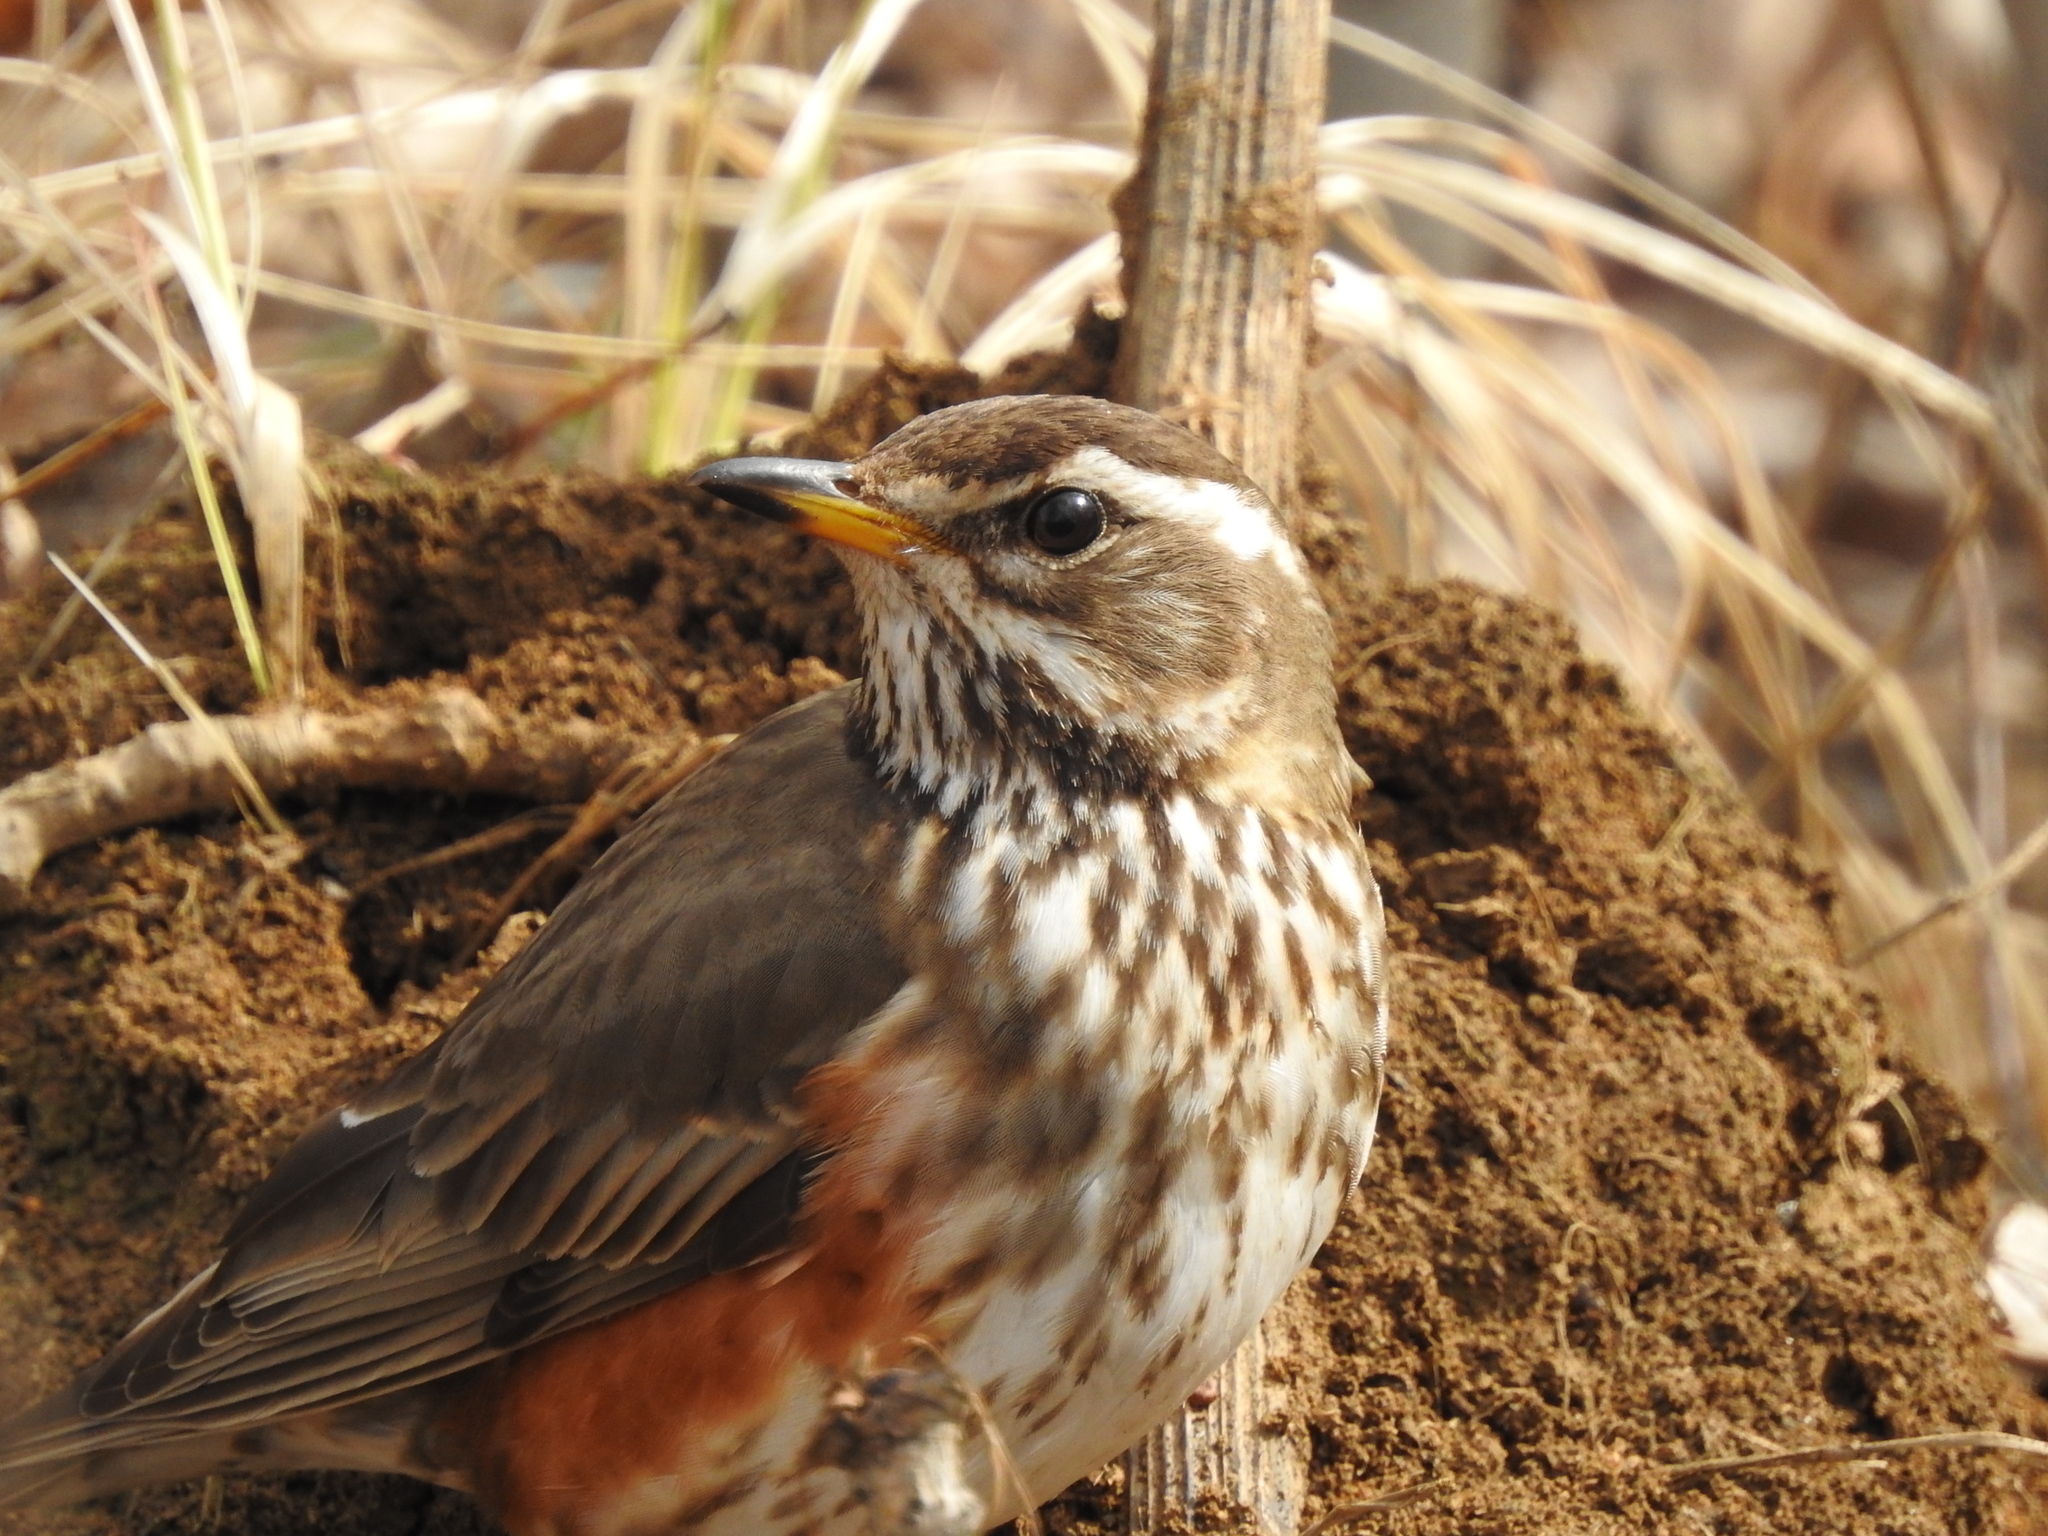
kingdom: Animalia
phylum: Chordata
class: Aves
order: Passeriformes
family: Turdidae
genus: Turdus
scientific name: Turdus iliacus
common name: Redwing
